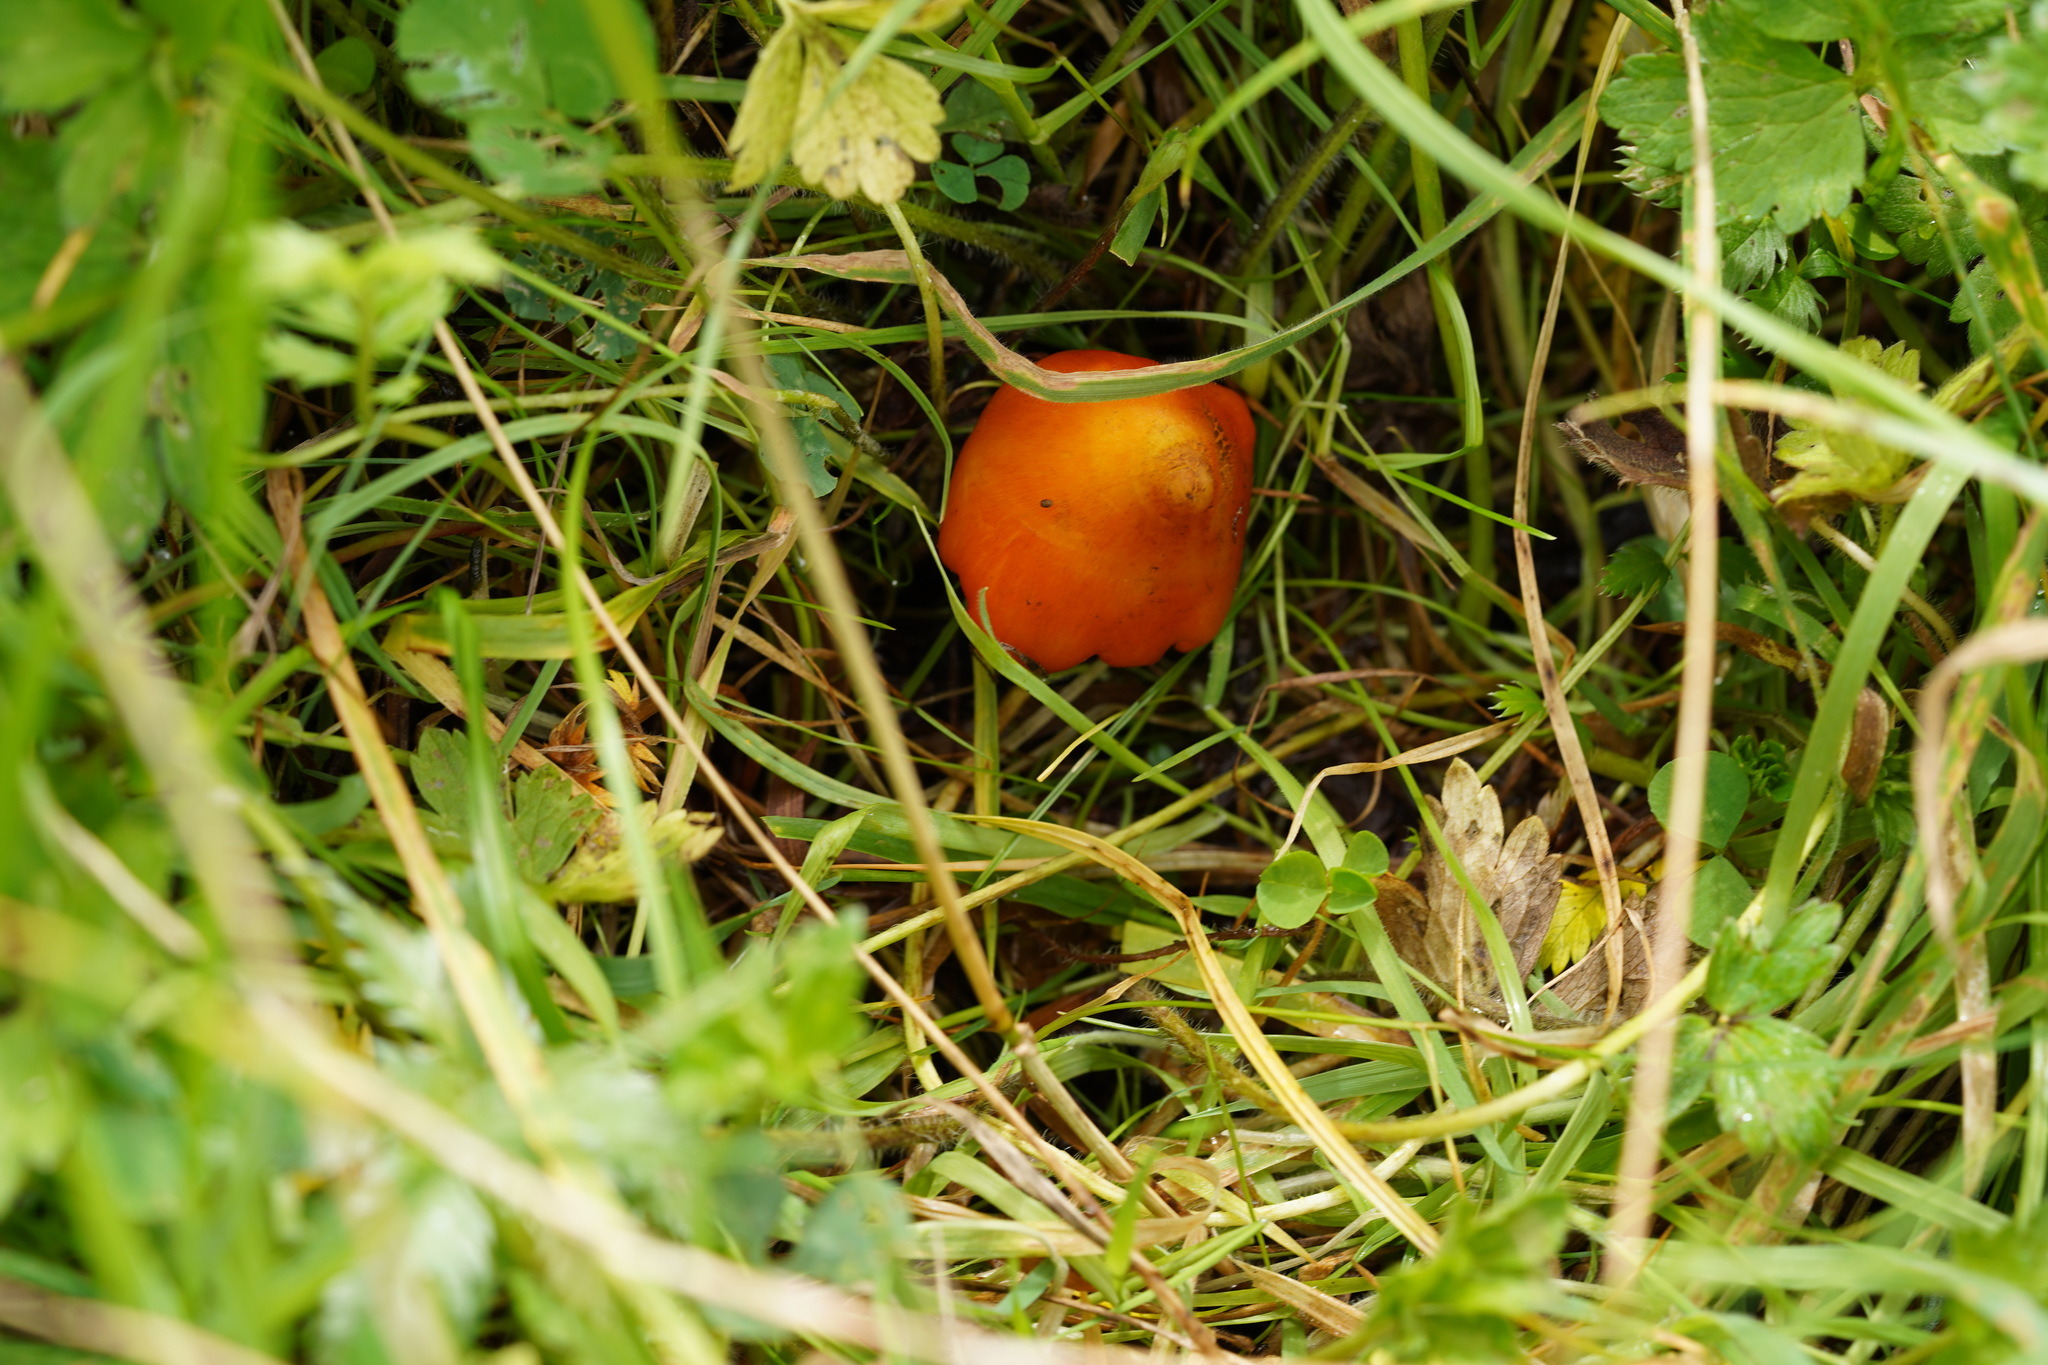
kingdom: Fungi
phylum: Basidiomycota
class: Agaricomycetes
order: Agaricales
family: Hygrophoraceae
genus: Hygrocybe
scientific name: Hygrocybe conica
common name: Blackening wax-cap
